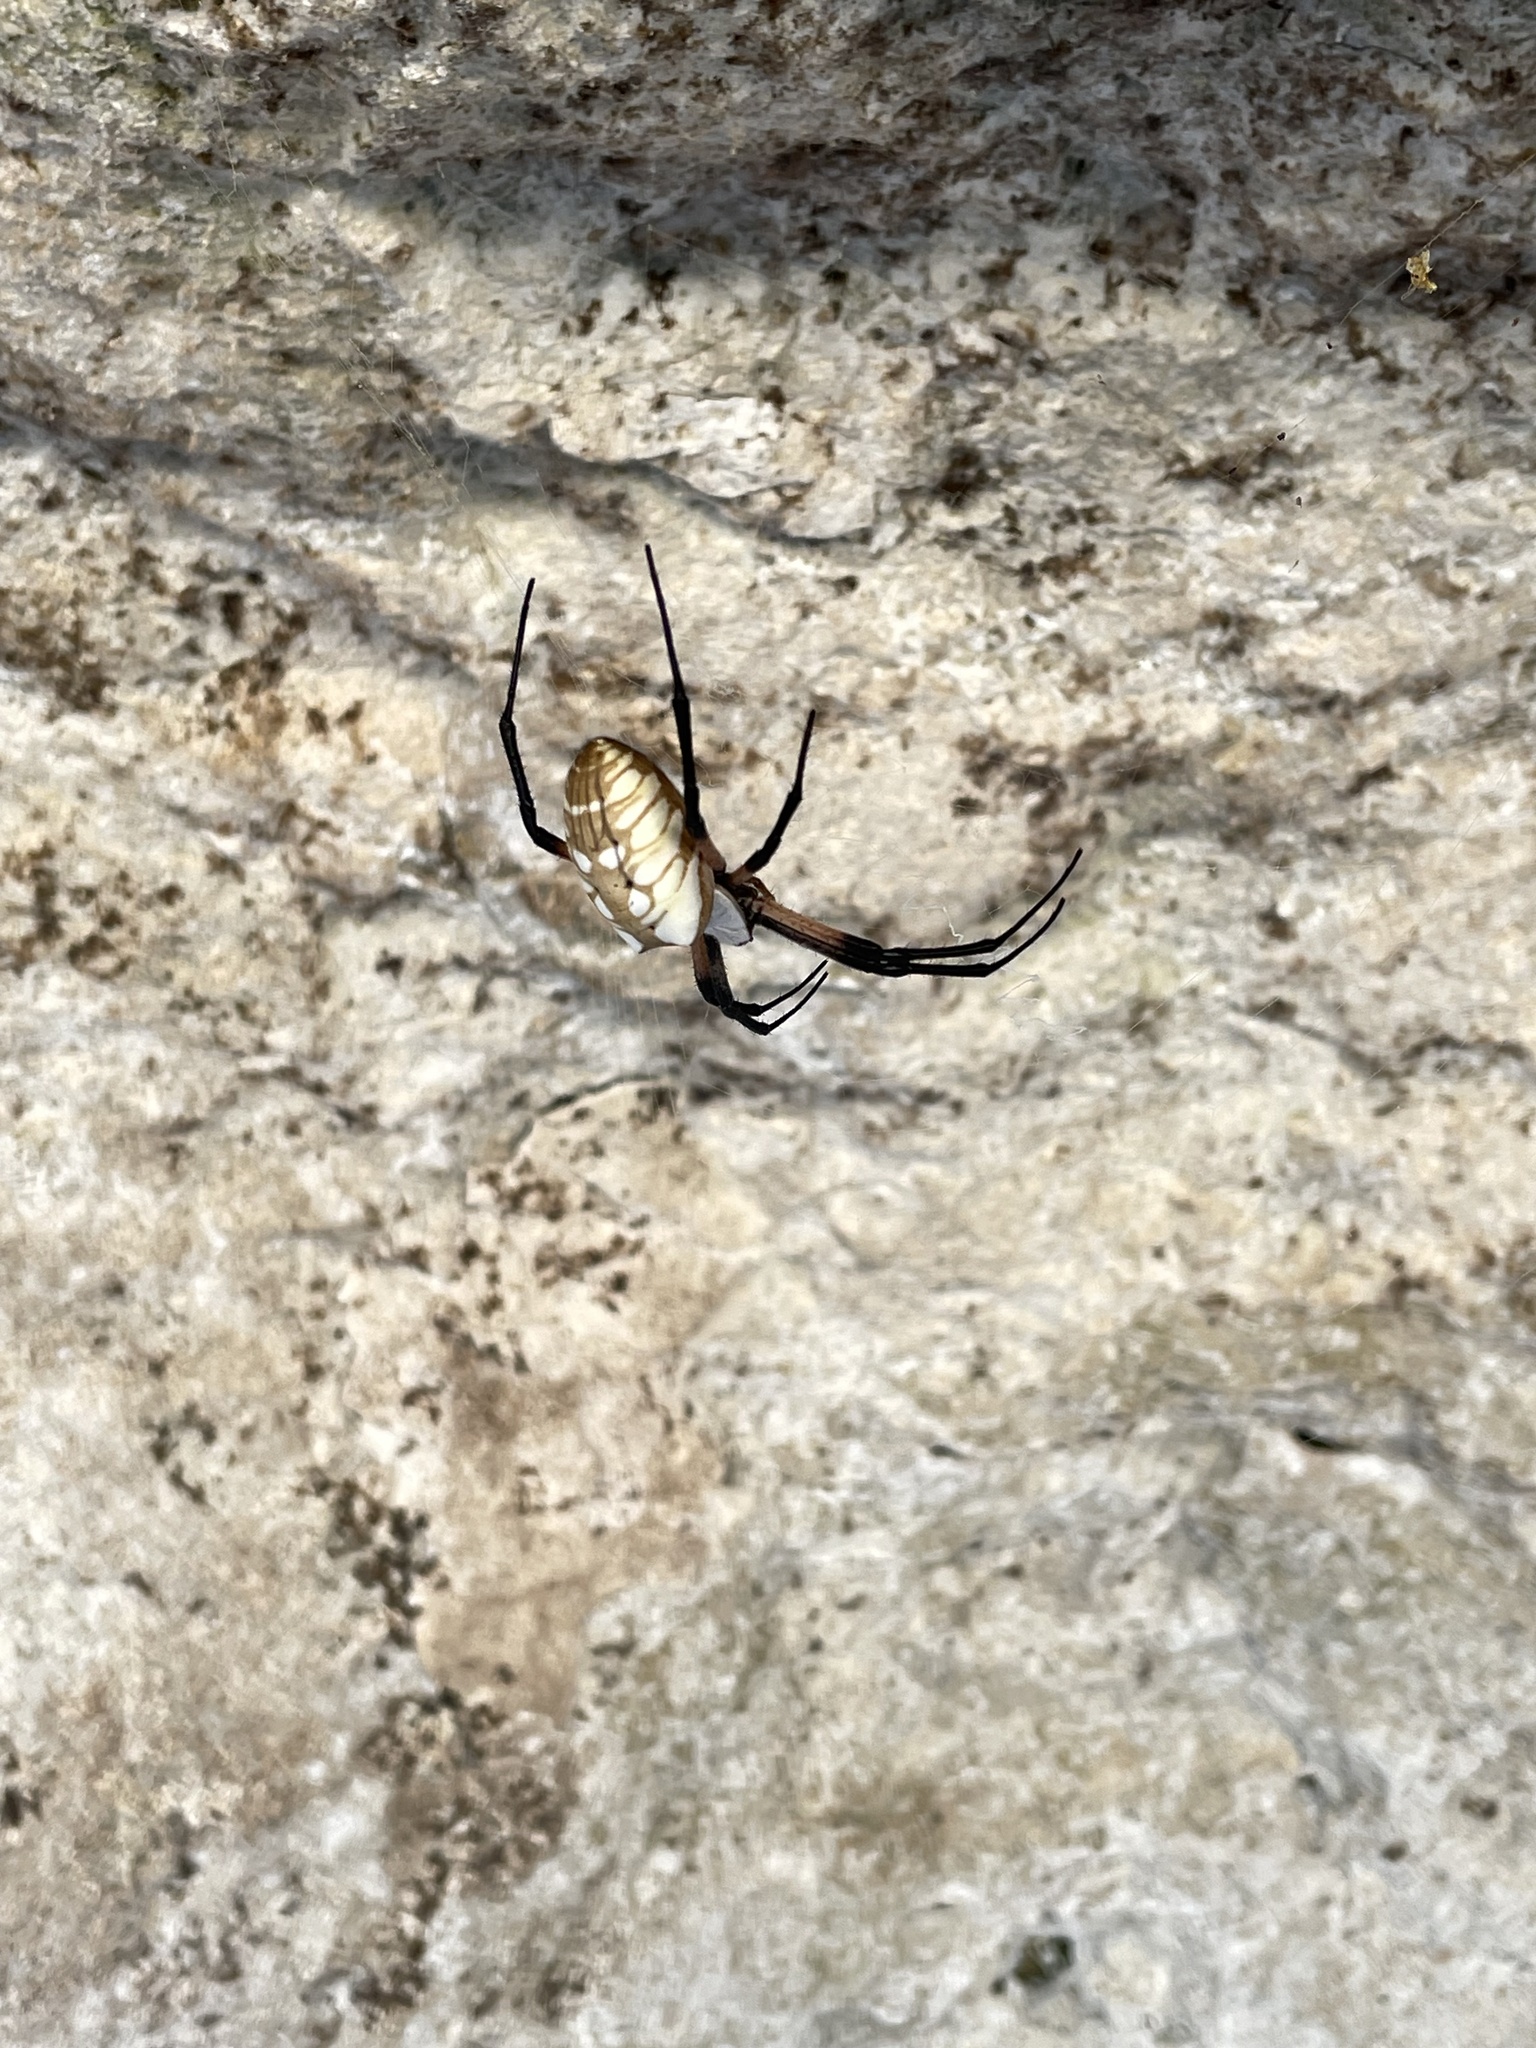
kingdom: Animalia
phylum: Arthropoda
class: Arachnida
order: Araneae
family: Araneidae
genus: Argiope
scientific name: Argiope aurantia
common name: Orb weavers
